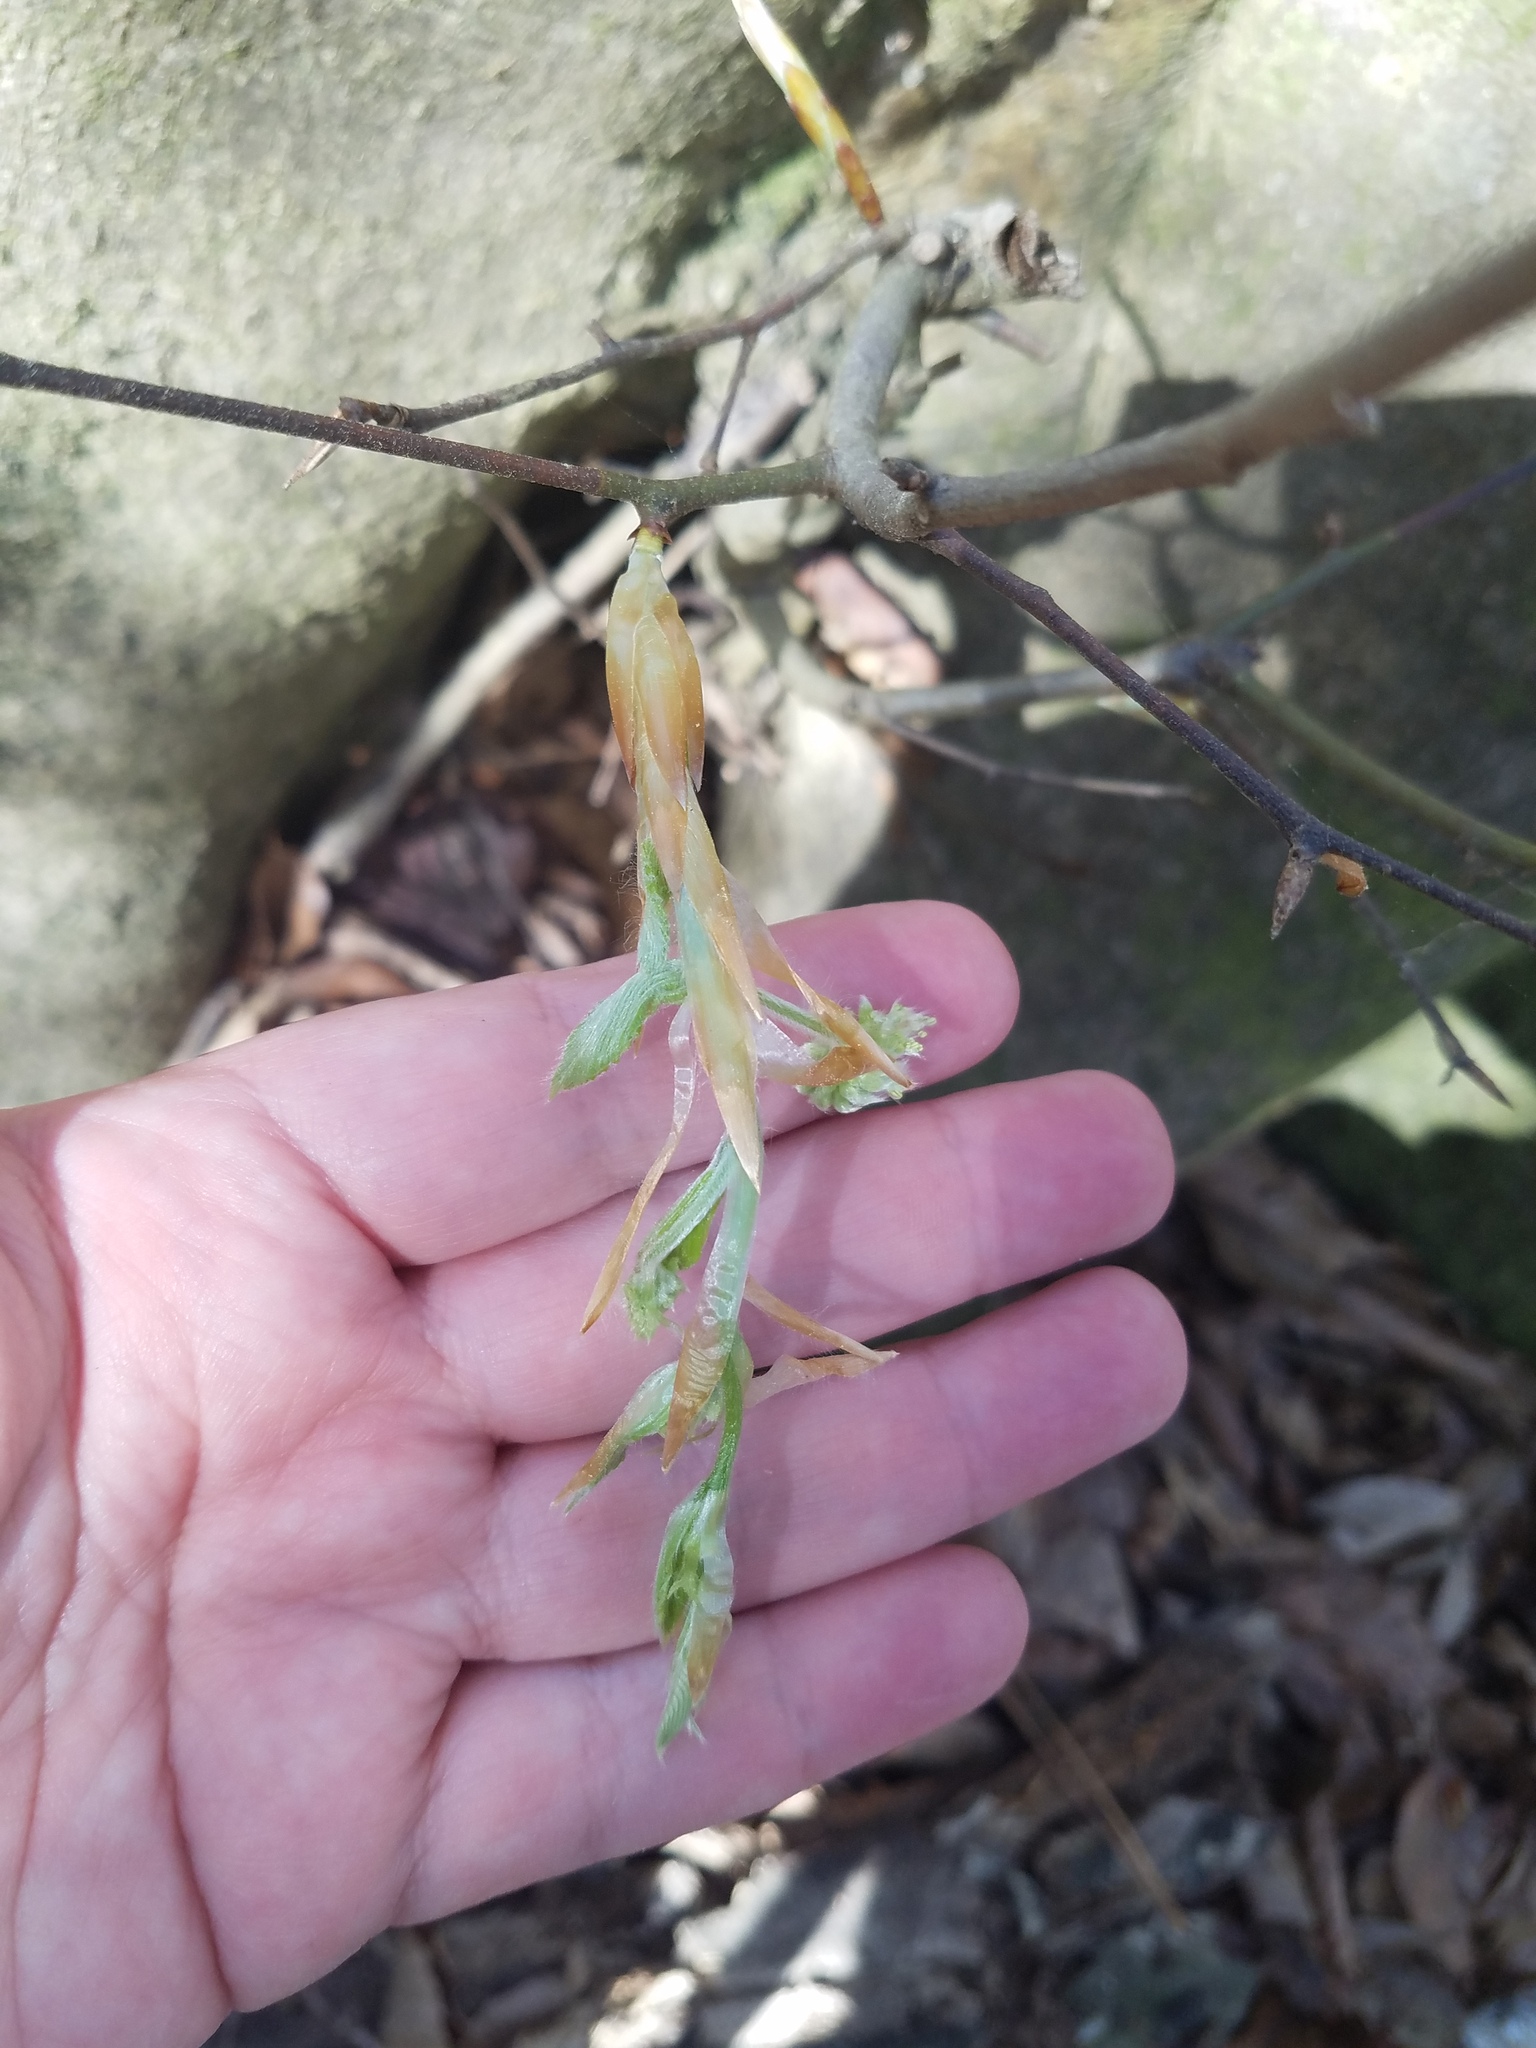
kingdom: Plantae
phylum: Tracheophyta
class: Magnoliopsida
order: Fagales
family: Fagaceae
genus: Fagus
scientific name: Fagus grandifolia
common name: American beech
